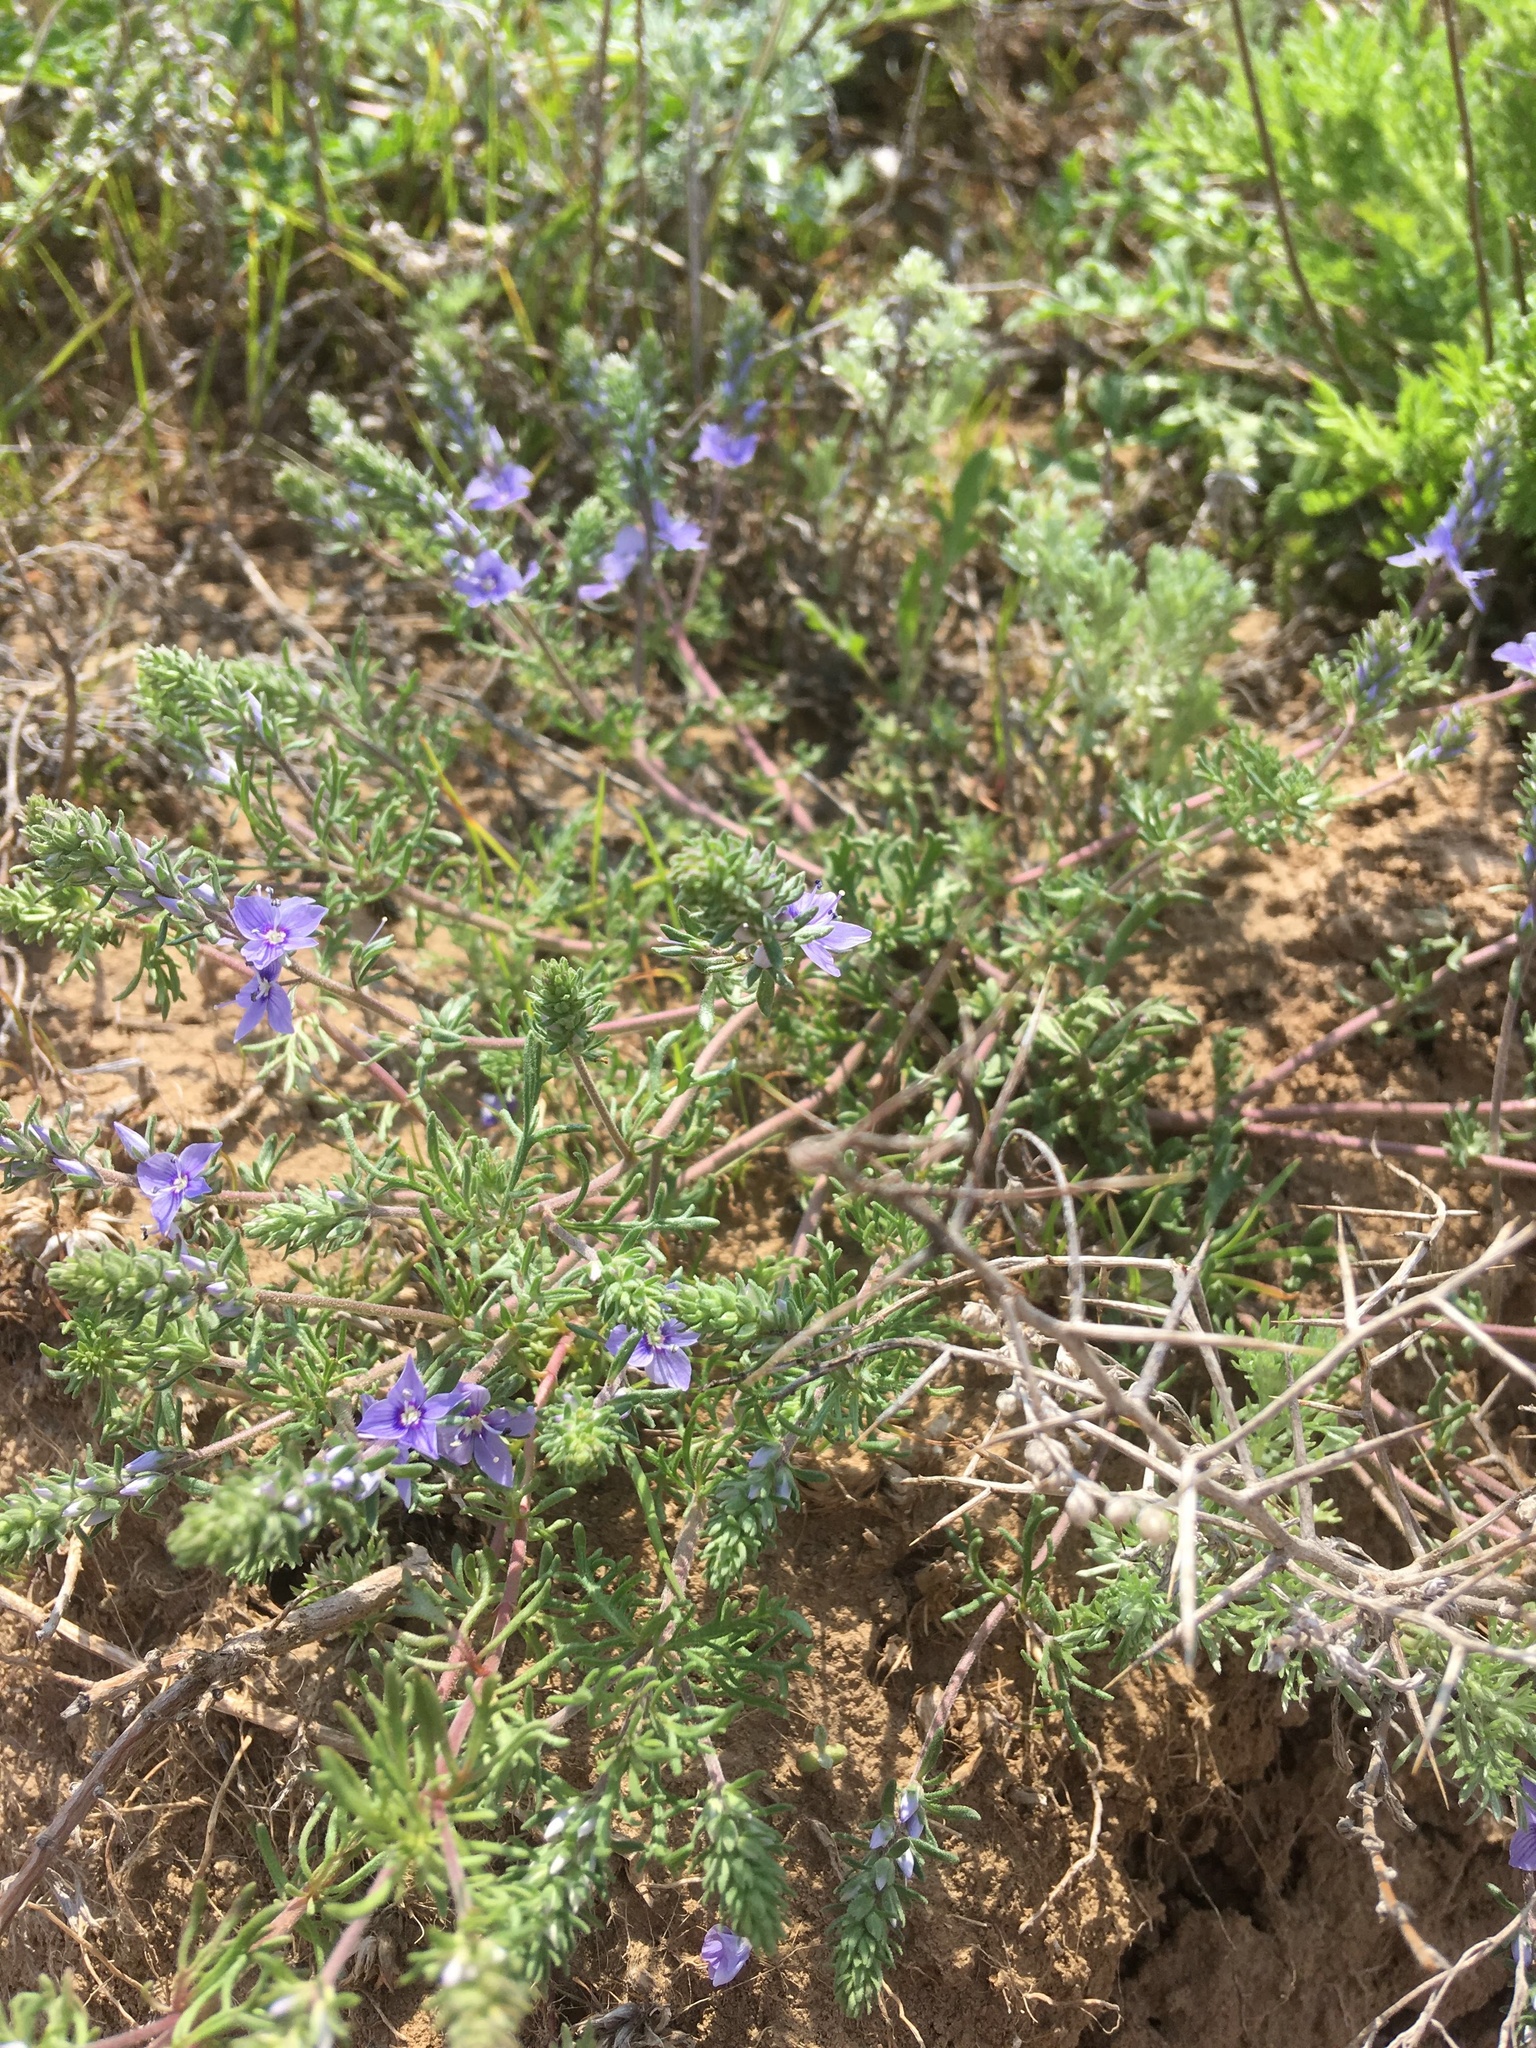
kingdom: Plantae
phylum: Tracheophyta
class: Magnoliopsida
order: Lamiales
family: Plantaginaceae
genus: Veronica
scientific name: Veronica capsellicarpa
